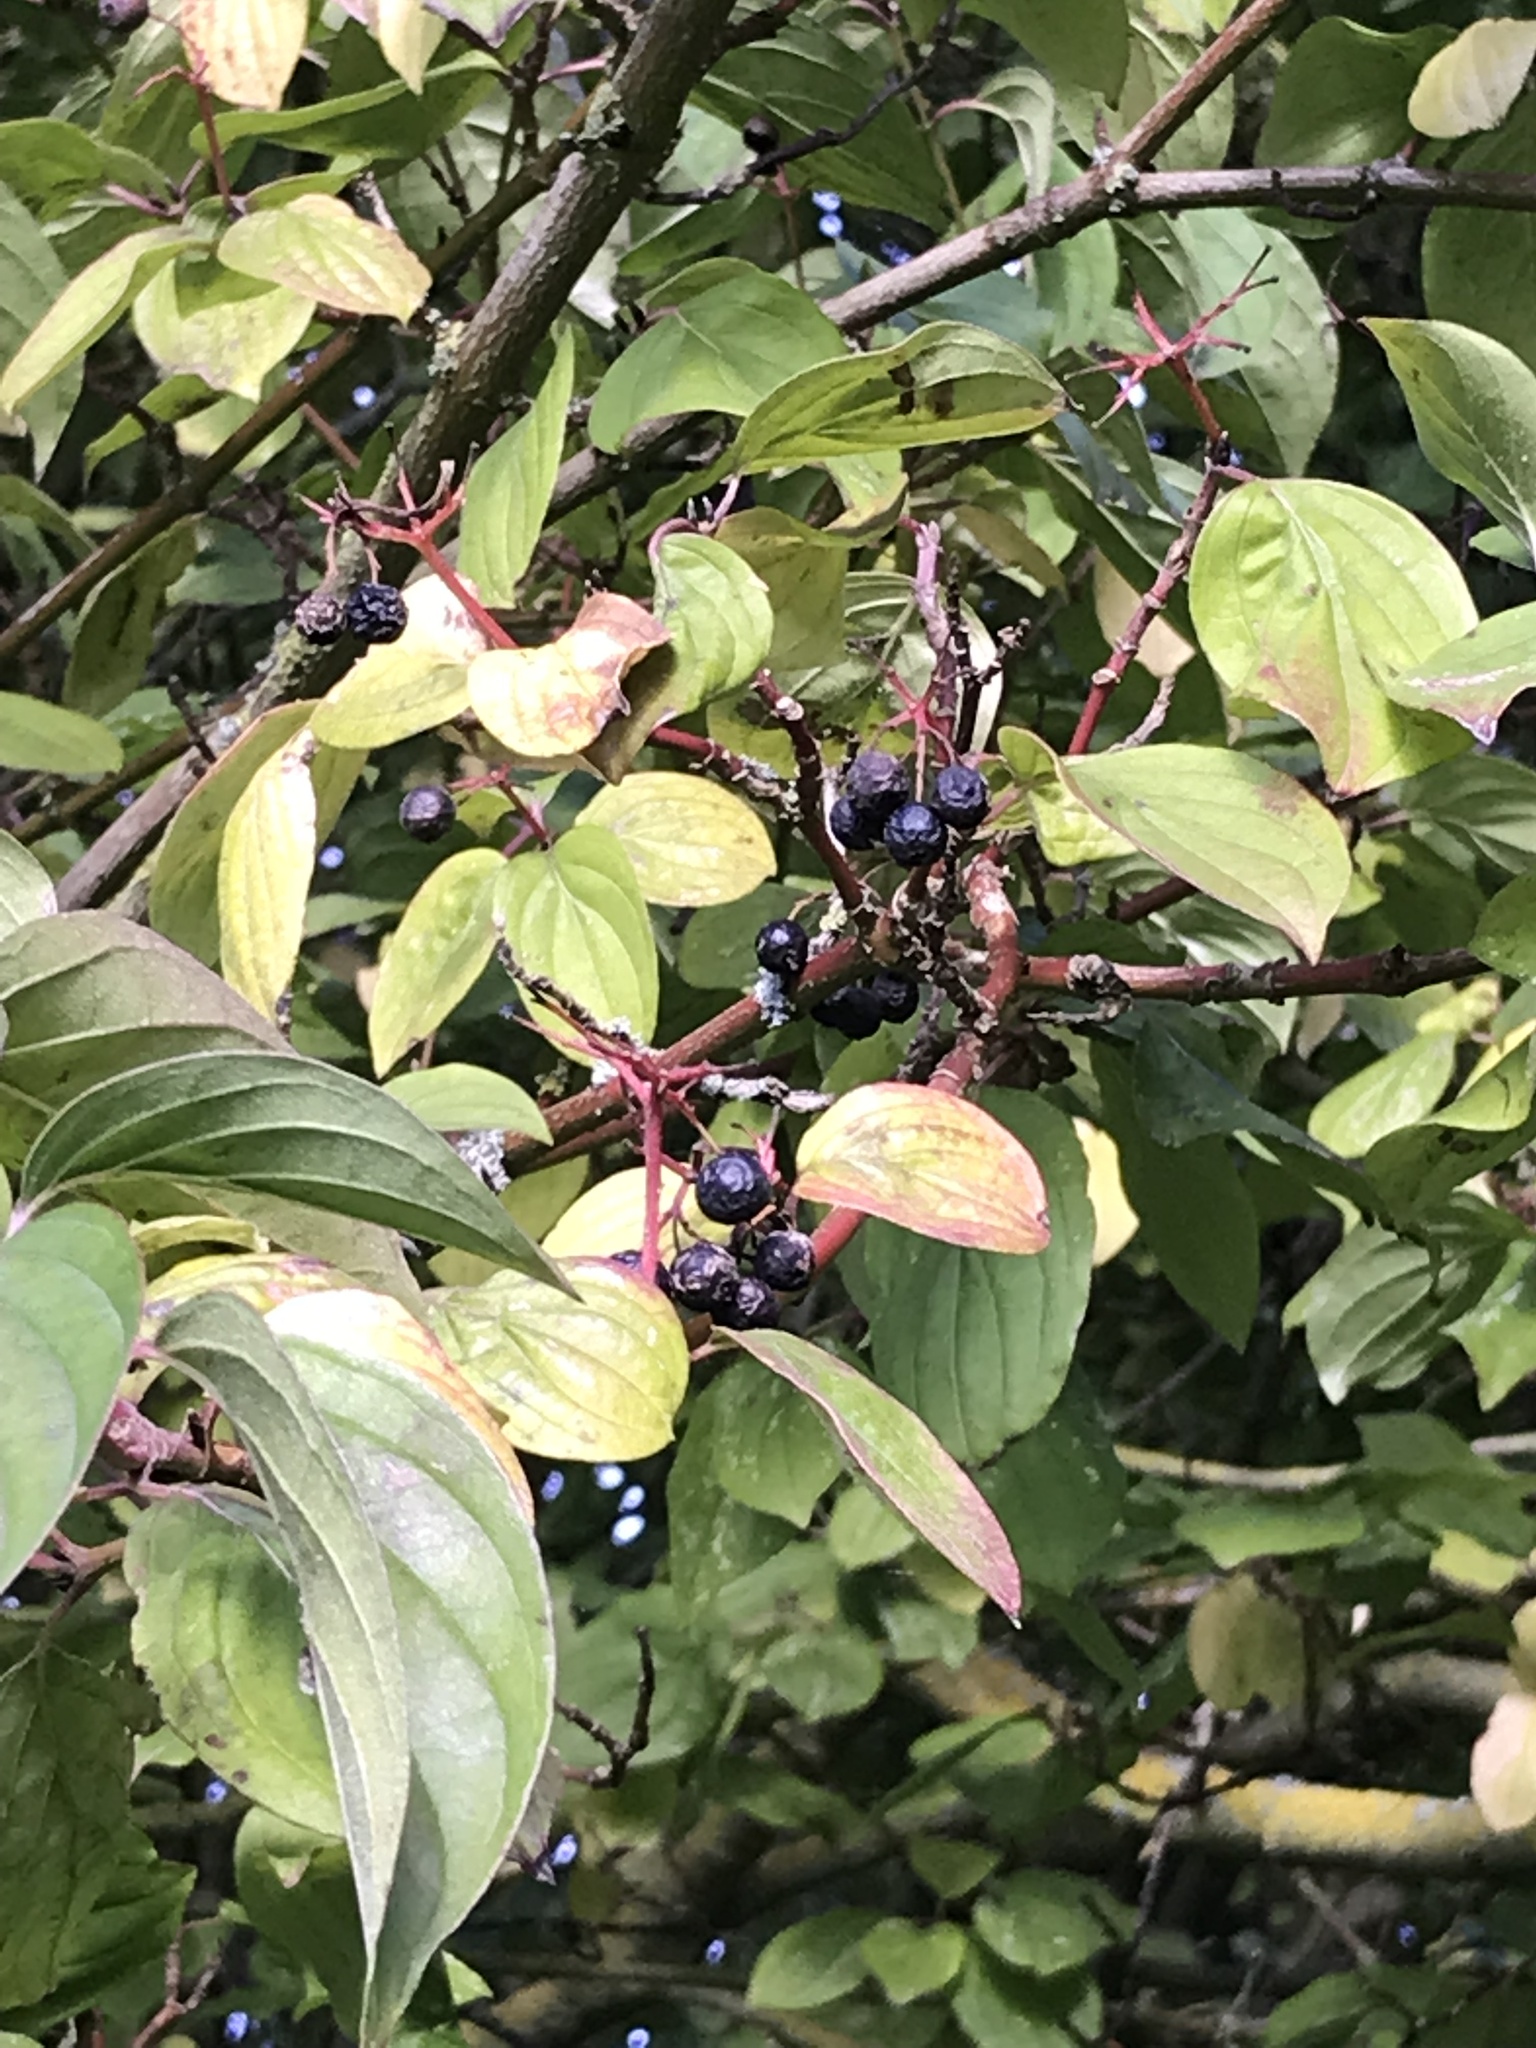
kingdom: Plantae
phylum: Tracheophyta
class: Magnoliopsida
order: Cornales
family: Cornaceae
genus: Cornus
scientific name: Cornus sanguinea
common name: Dogwood
